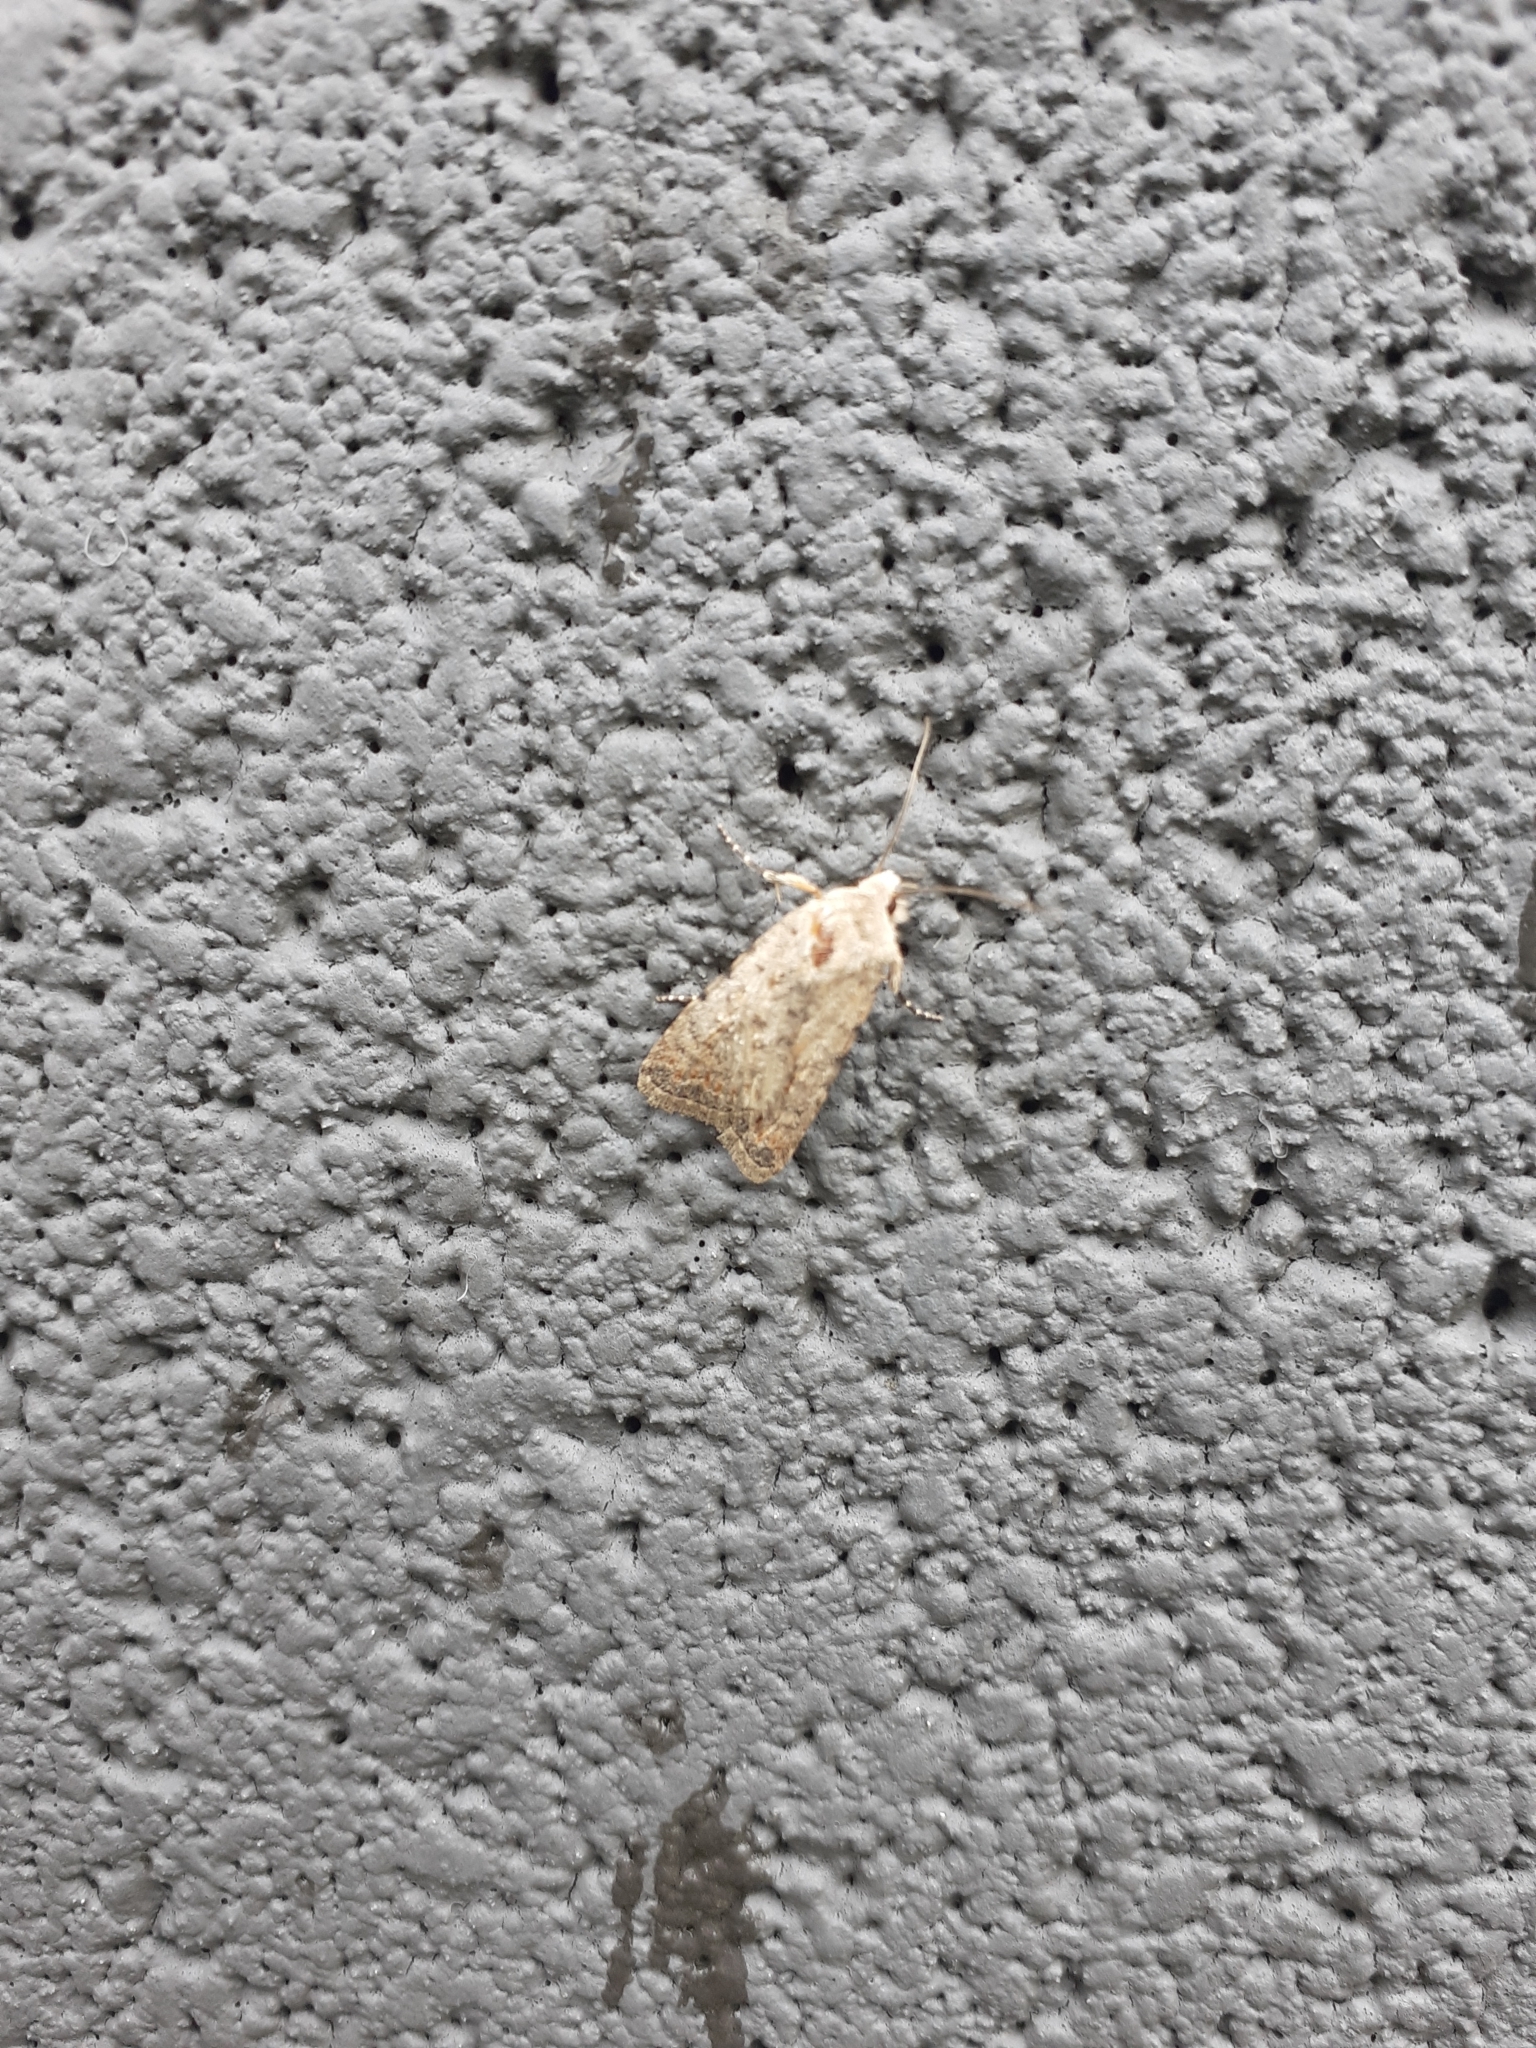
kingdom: Animalia
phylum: Arthropoda
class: Insecta
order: Lepidoptera
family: Noctuidae
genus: Caradrina
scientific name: Caradrina clavipalpis
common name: Pale mottled willow
